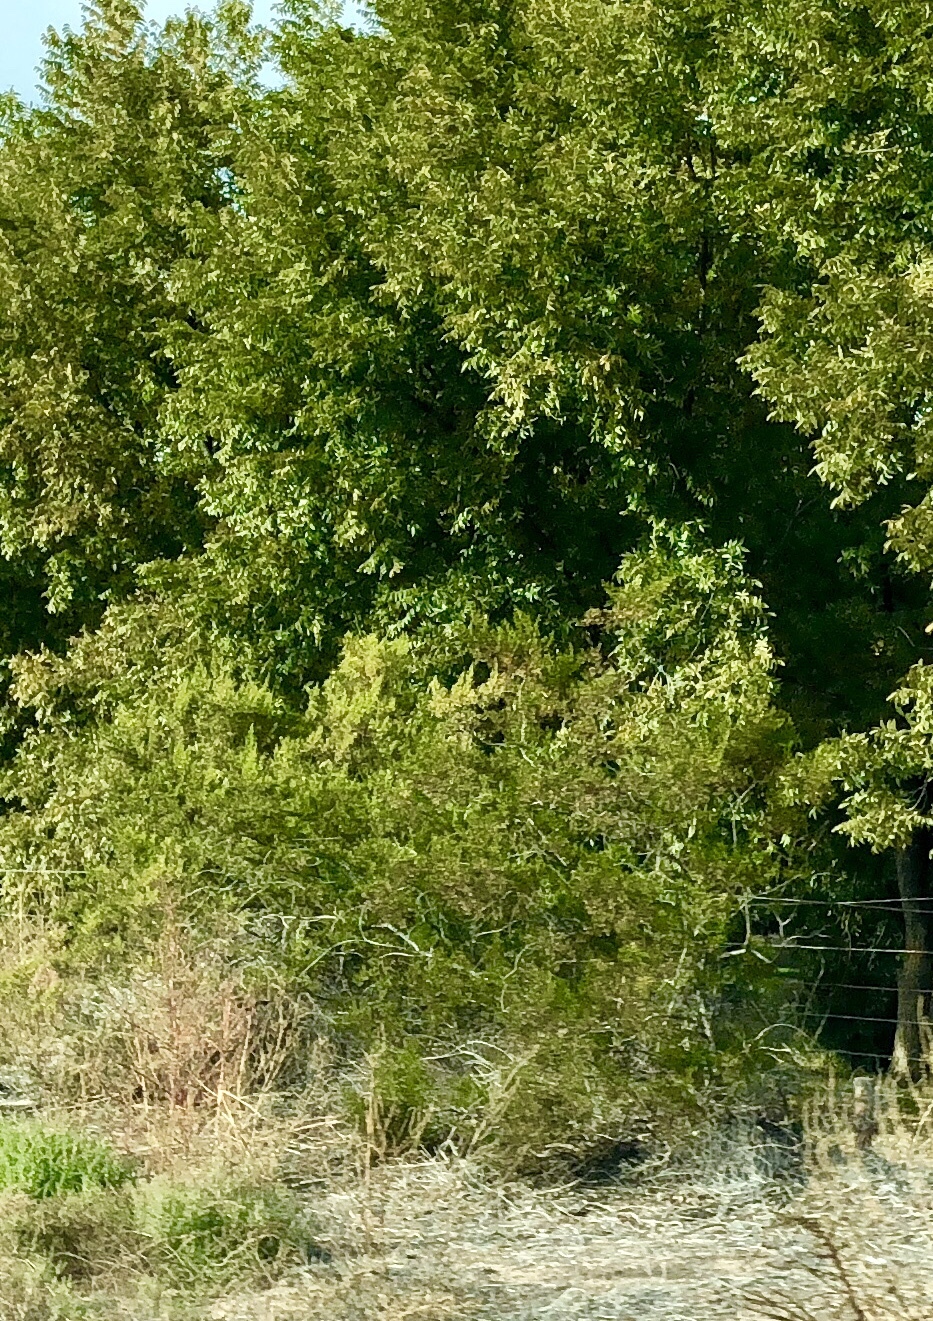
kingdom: Plantae
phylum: Tracheophyta
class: Magnoliopsida
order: Zygophyllales
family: Zygophyllaceae
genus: Larrea
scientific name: Larrea tridentata
